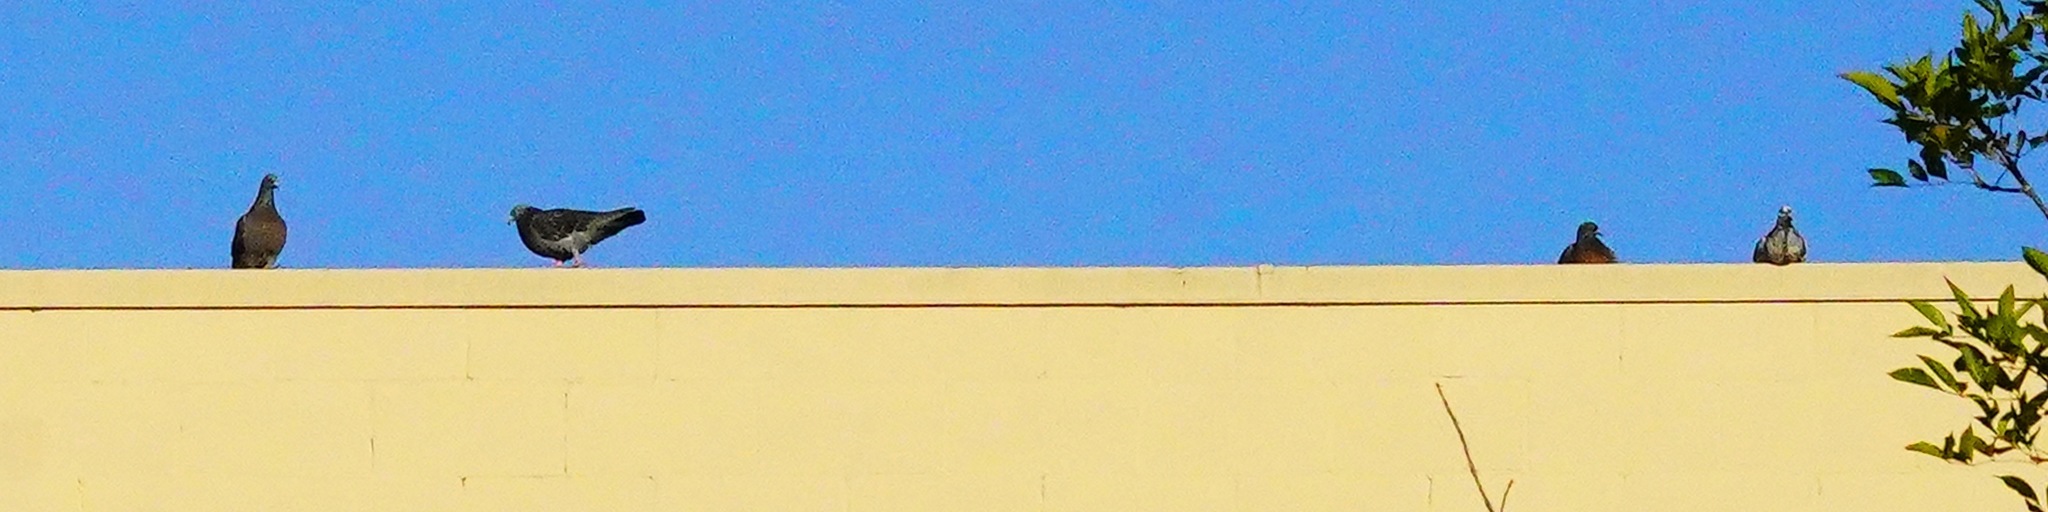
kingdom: Animalia
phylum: Chordata
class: Aves
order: Columbiformes
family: Columbidae
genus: Columba
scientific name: Columba livia
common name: Rock pigeon
